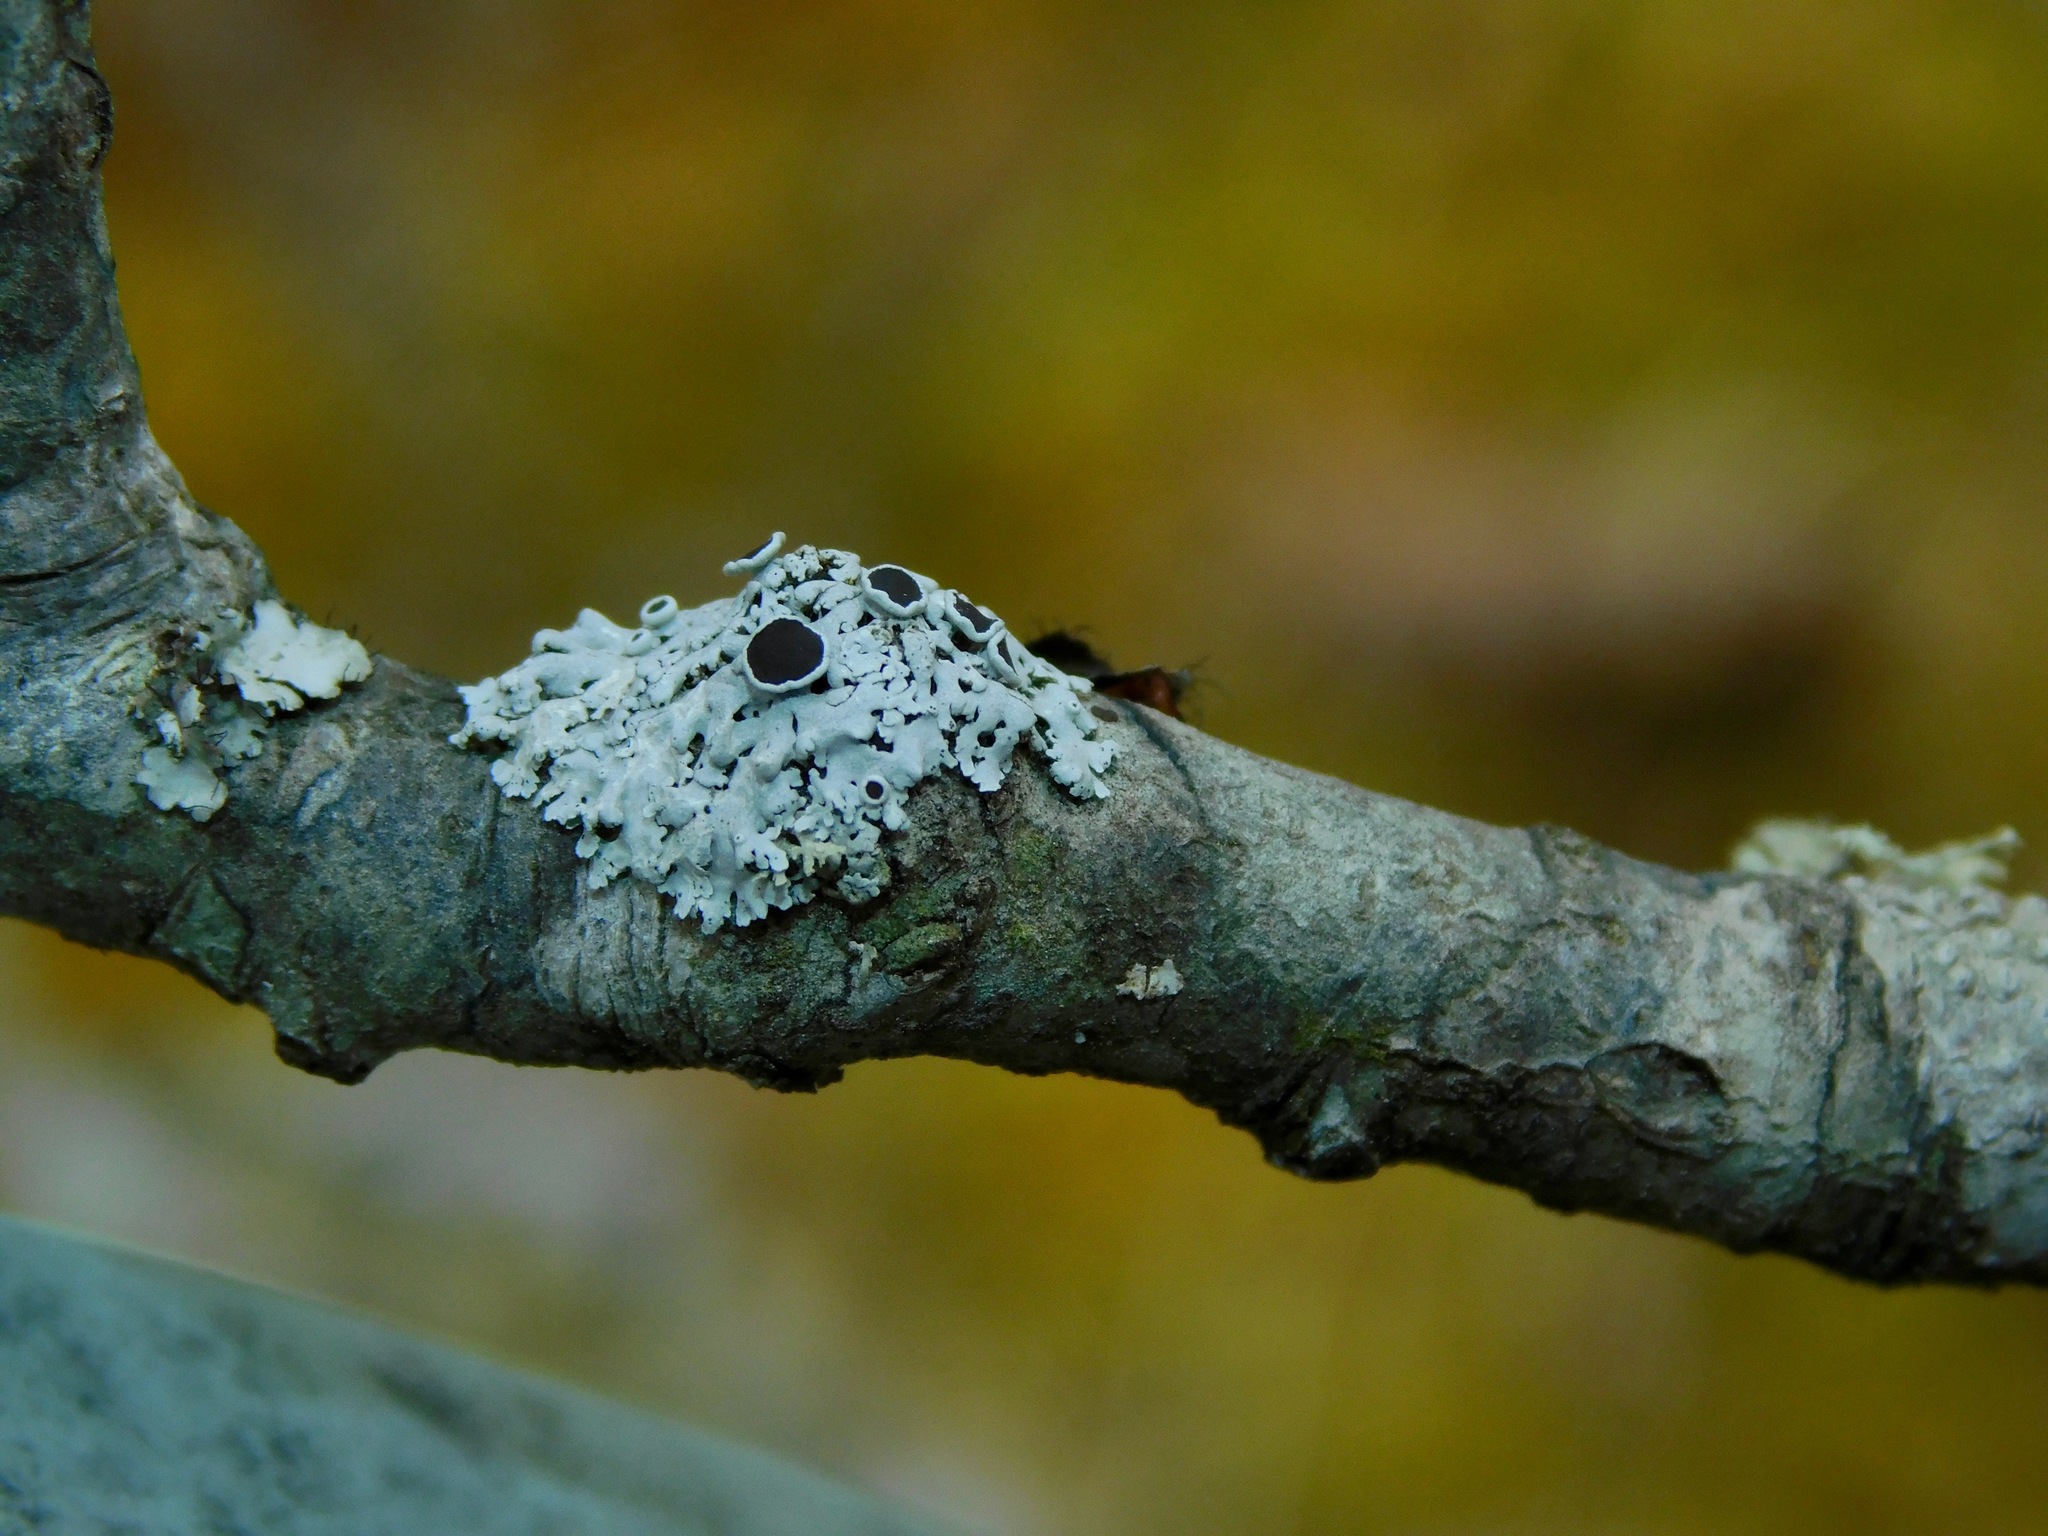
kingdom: Fungi
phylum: Ascomycota
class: Lecanoromycetes
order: Caliciales
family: Physciaceae
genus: Physcia
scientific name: Physcia aipolia
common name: Hoary rosette lichen
